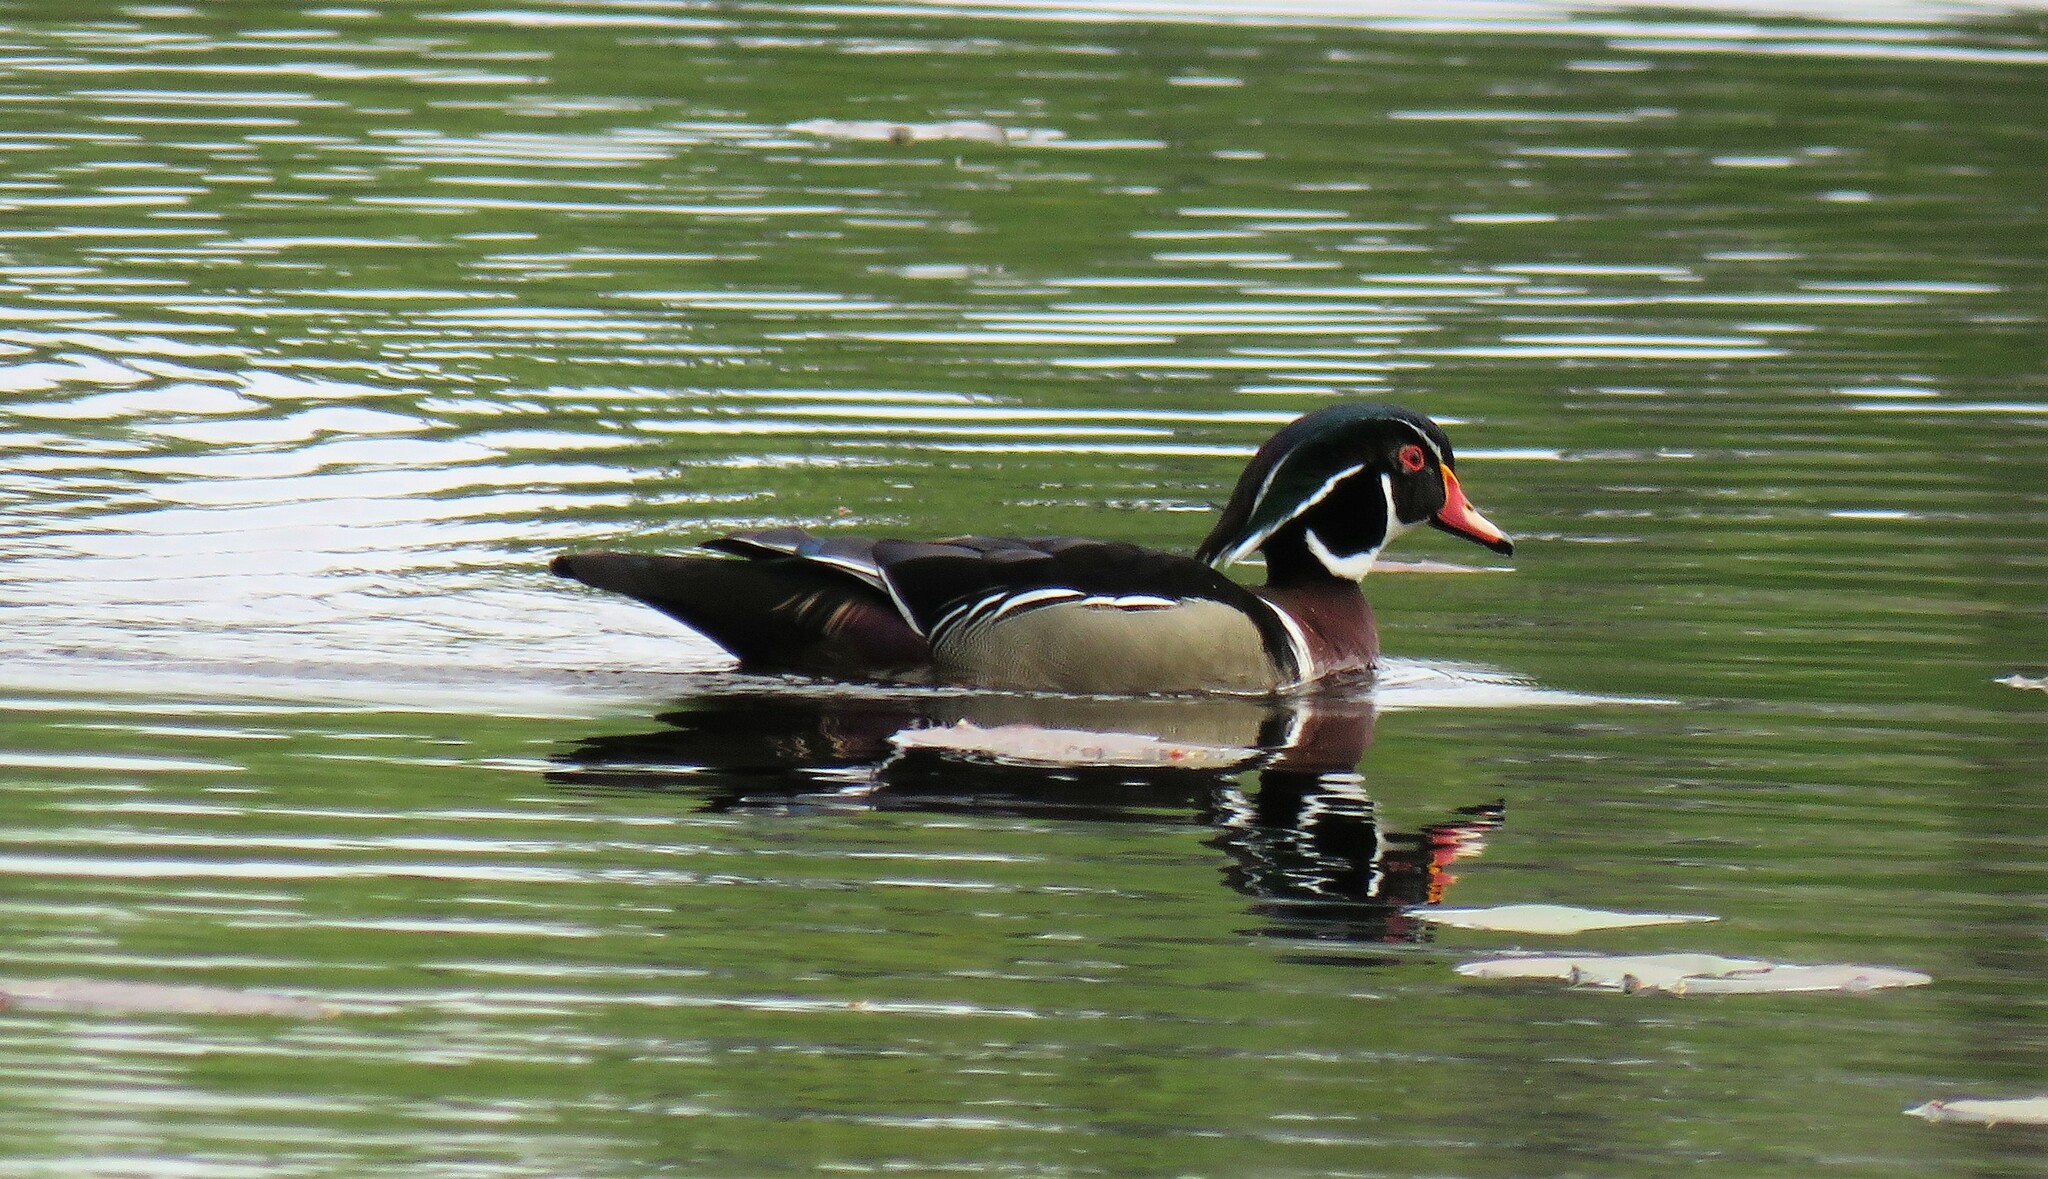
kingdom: Animalia
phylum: Chordata
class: Aves
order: Anseriformes
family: Anatidae
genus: Aix
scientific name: Aix sponsa
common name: Wood duck
